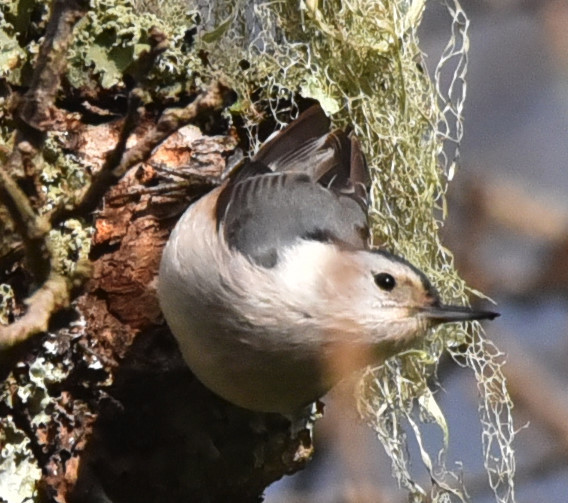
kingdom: Animalia
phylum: Chordata
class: Aves
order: Passeriformes
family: Sittidae
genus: Sitta
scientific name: Sitta carolinensis
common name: White-breasted nuthatch
